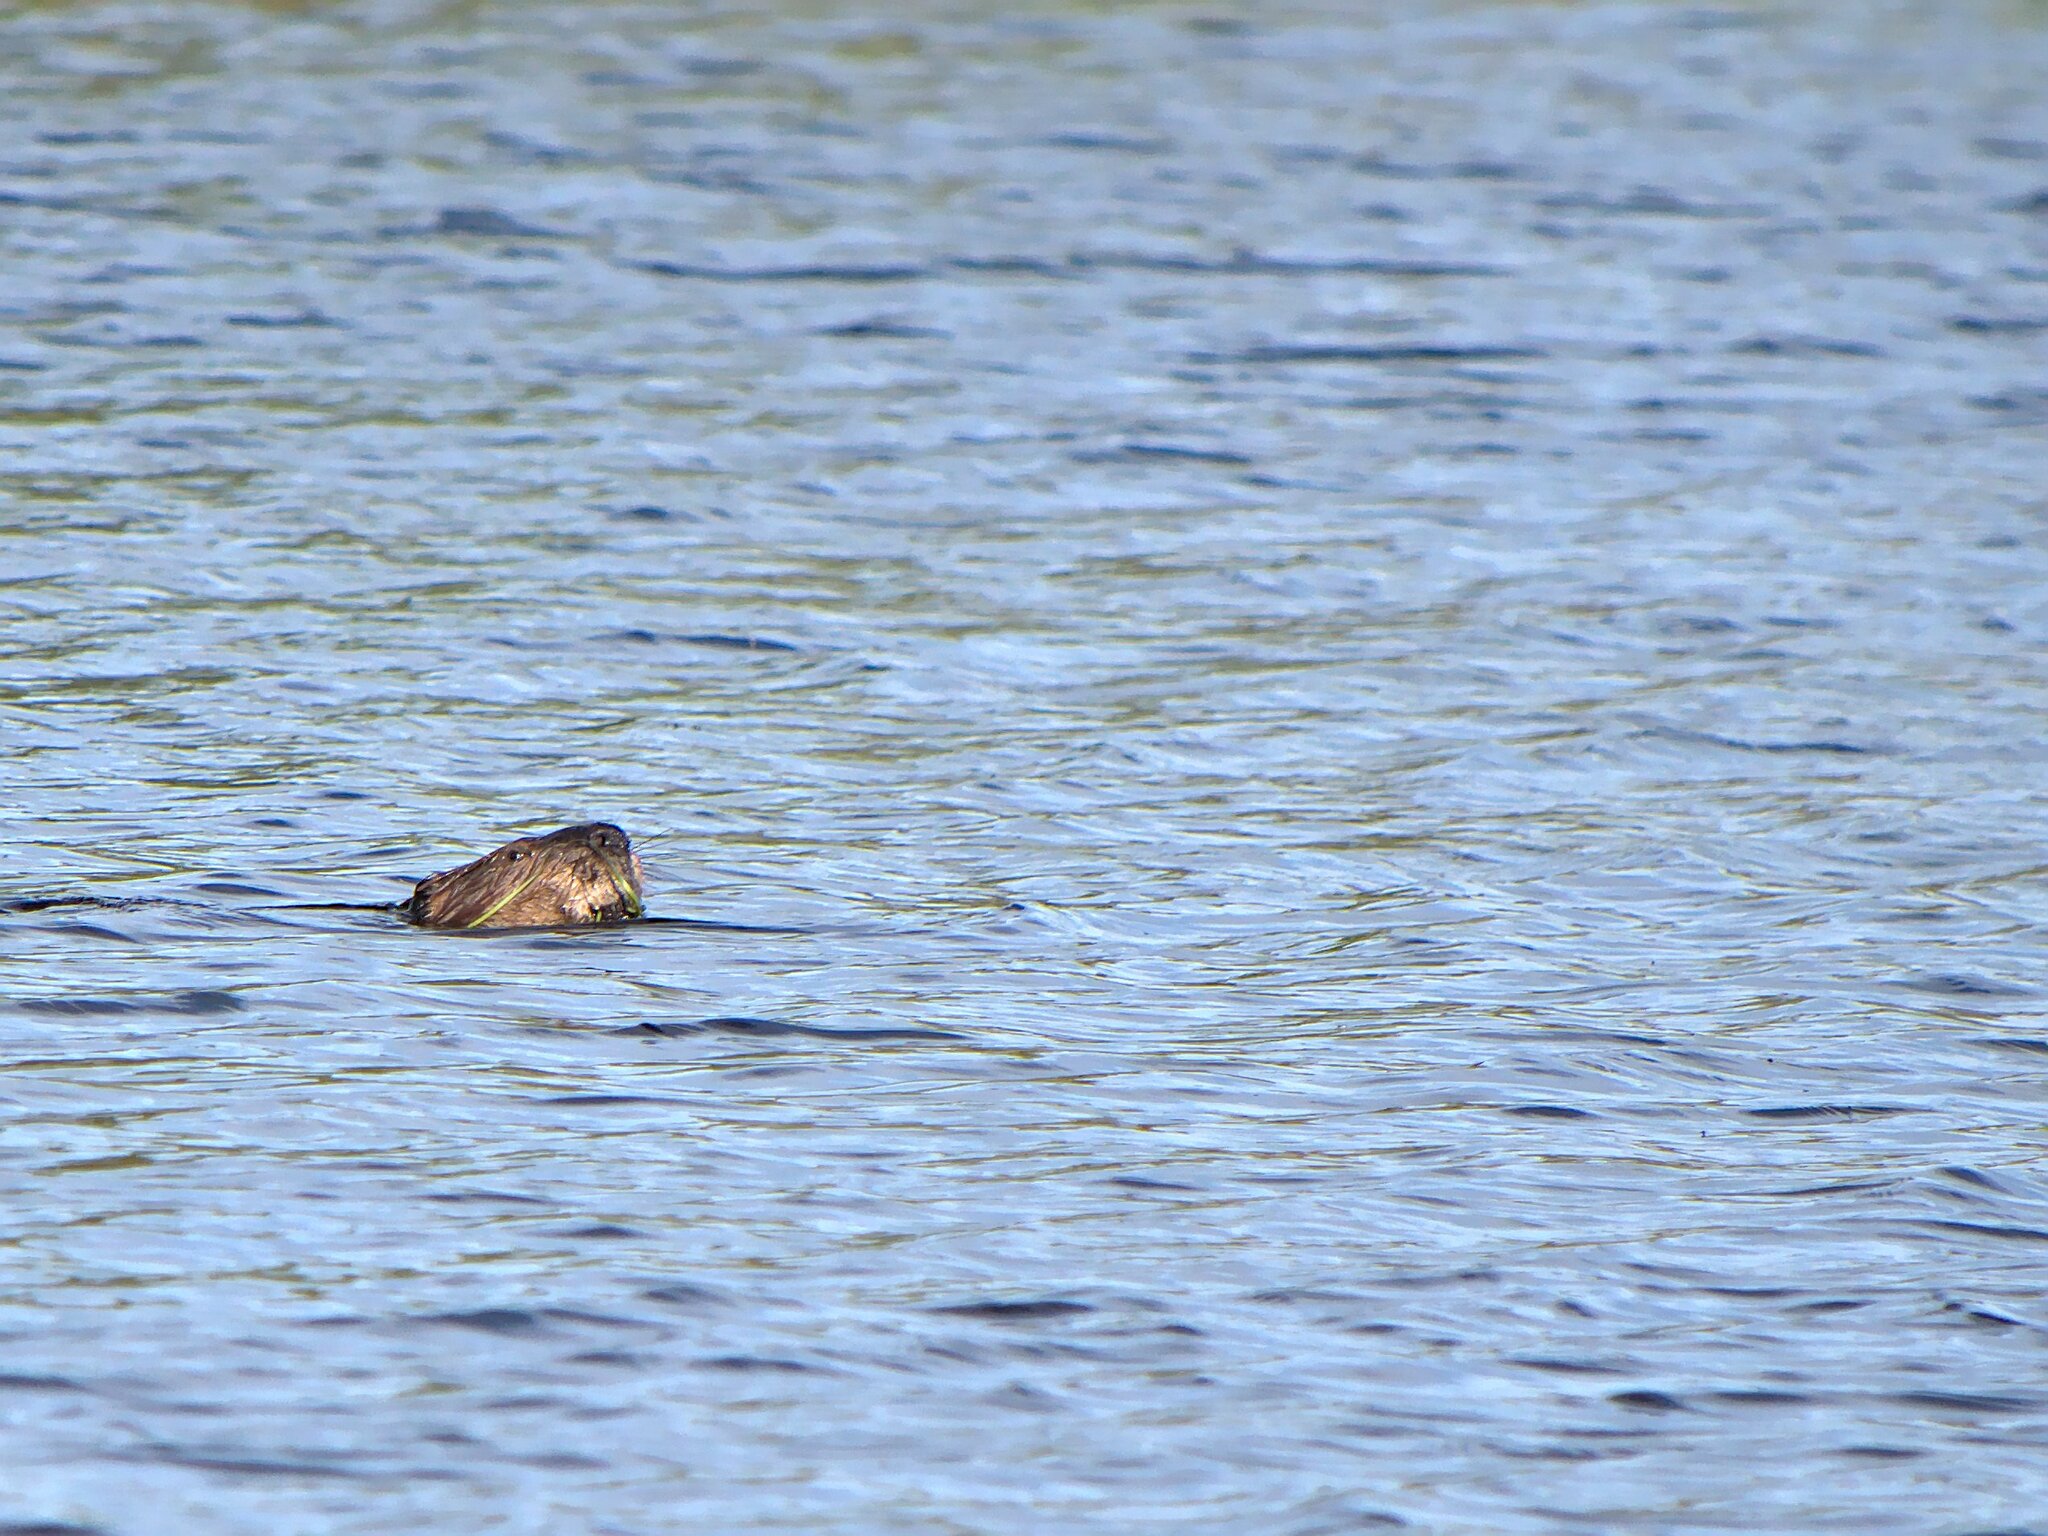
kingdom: Animalia
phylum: Chordata
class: Mammalia
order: Rodentia
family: Castoridae
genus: Castor
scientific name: Castor canadensis
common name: American beaver
